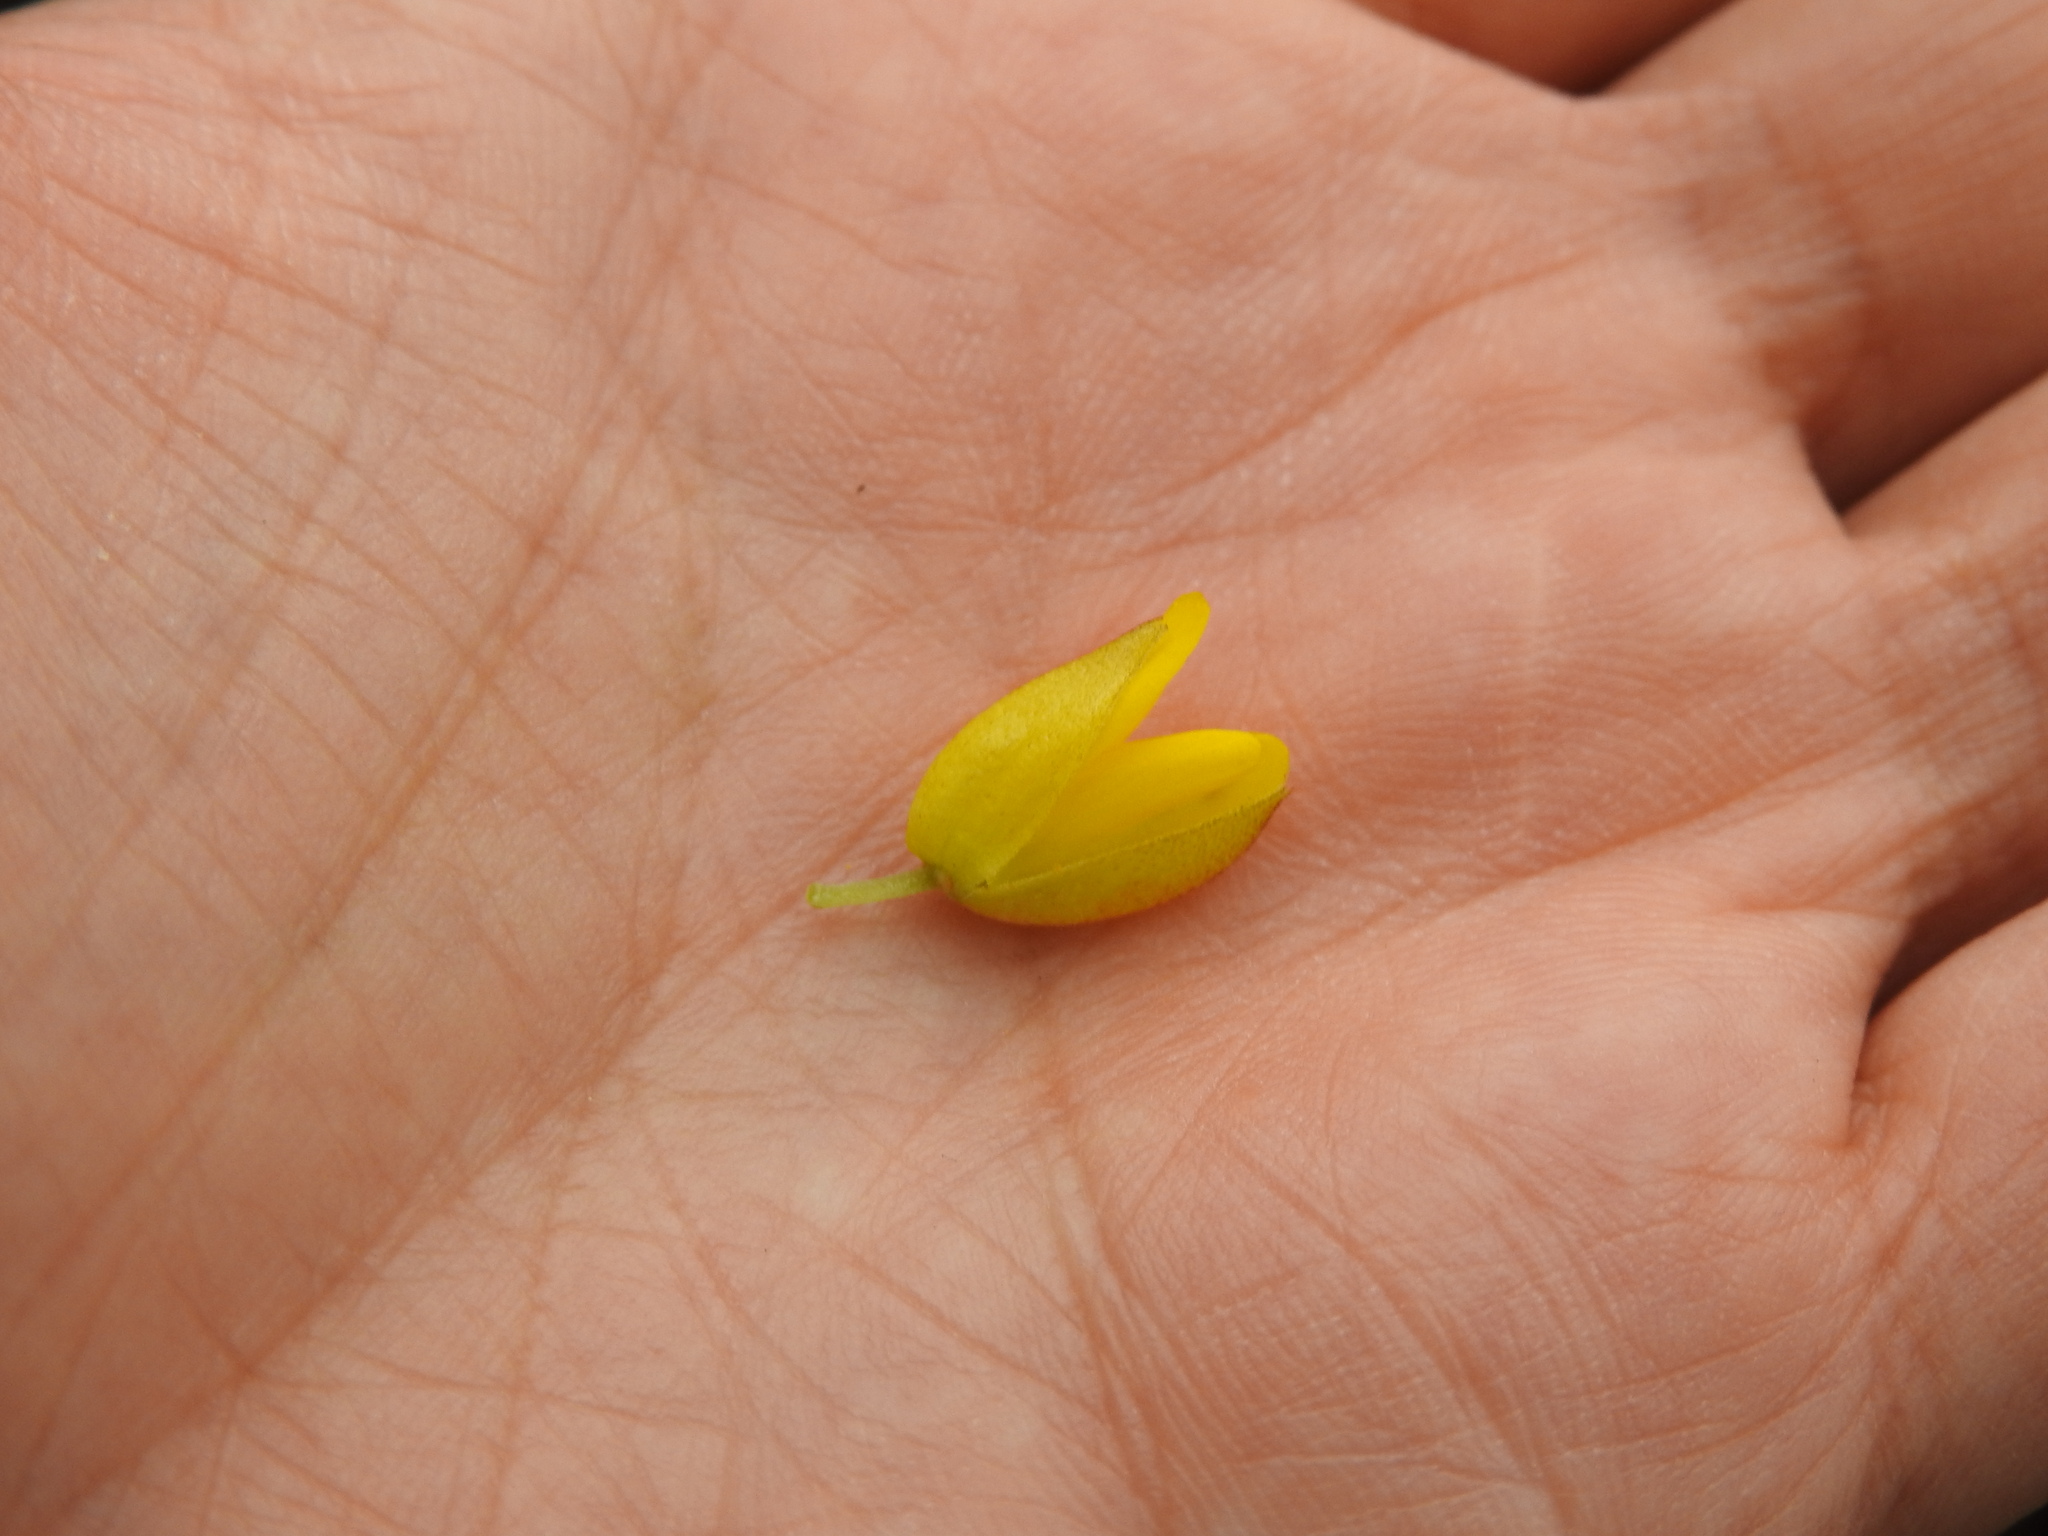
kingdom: Plantae
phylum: Tracheophyta
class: Magnoliopsida
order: Fabales
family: Fabaceae
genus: Ulex
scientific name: Ulex jussiaei
